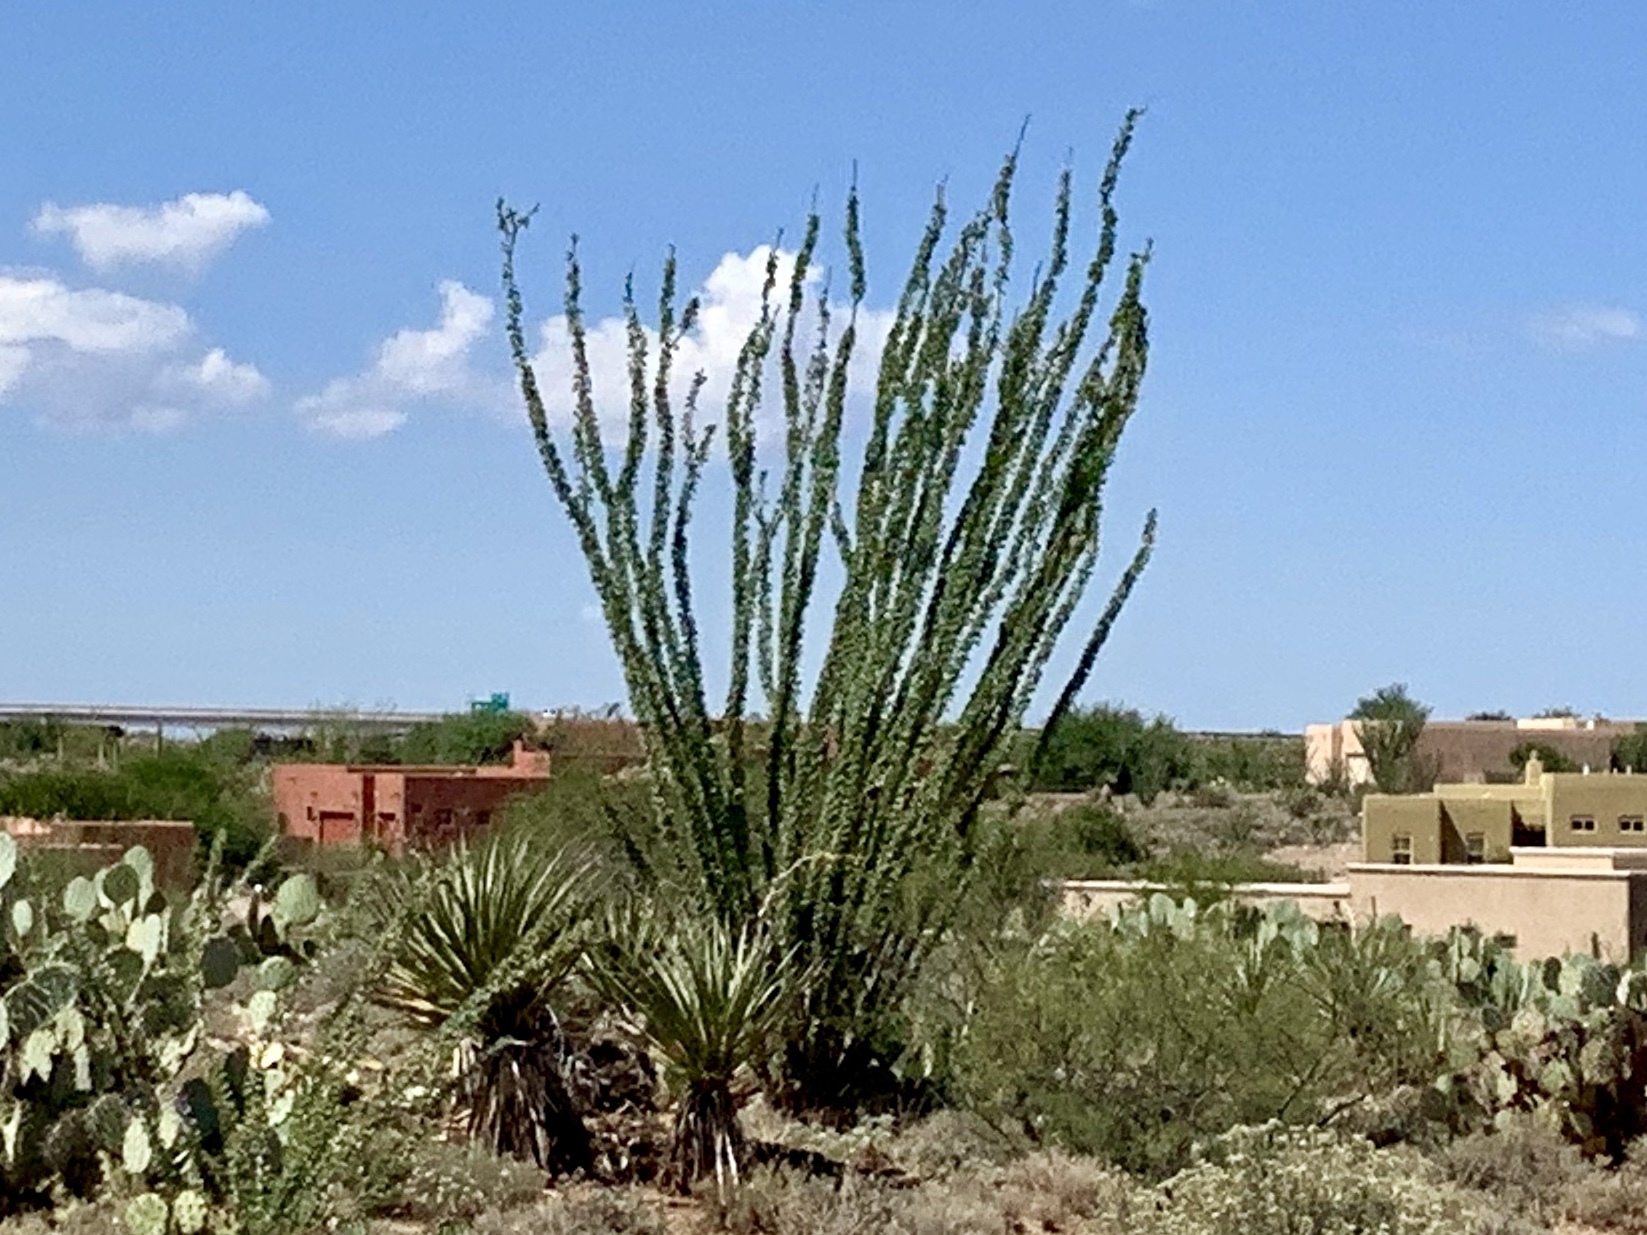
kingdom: Plantae
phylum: Tracheophyta
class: Magnoliopsida
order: Ericales
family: Fouquieriaceae
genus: Fouquieria
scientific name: Fouquieria splendens
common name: Vine-cactus
